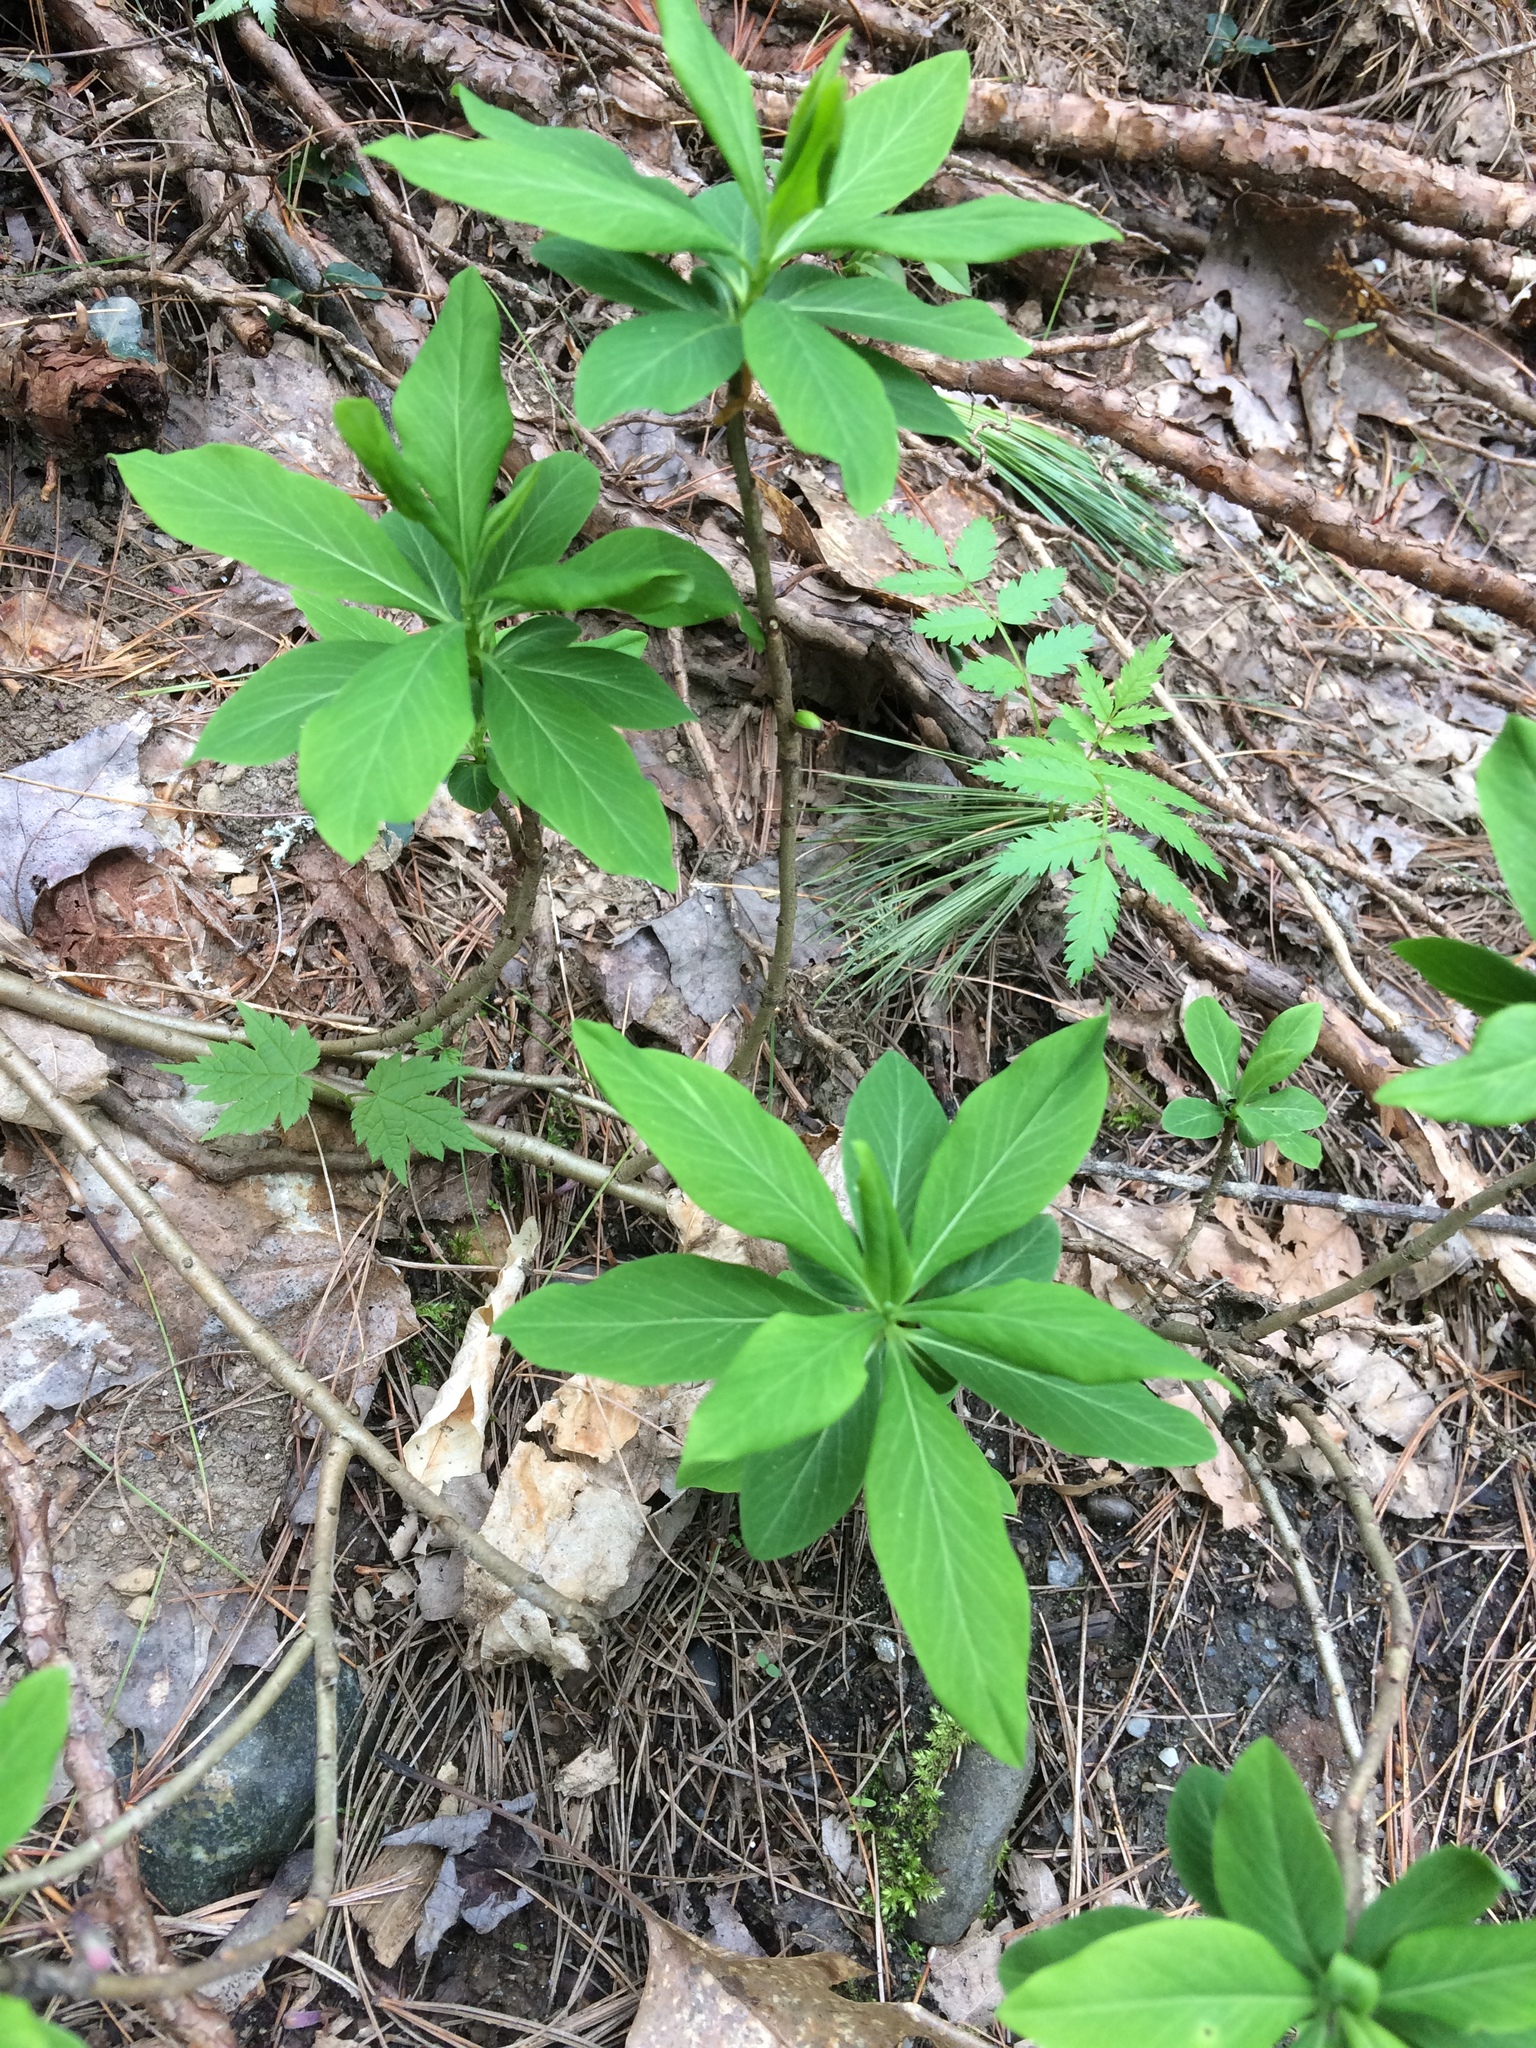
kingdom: Plantae
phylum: Tracheophyta
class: Magnoliopsida
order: Malvales
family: Thymelaeaceae
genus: Daphne
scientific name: Daphne mezereum
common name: Mezereon
